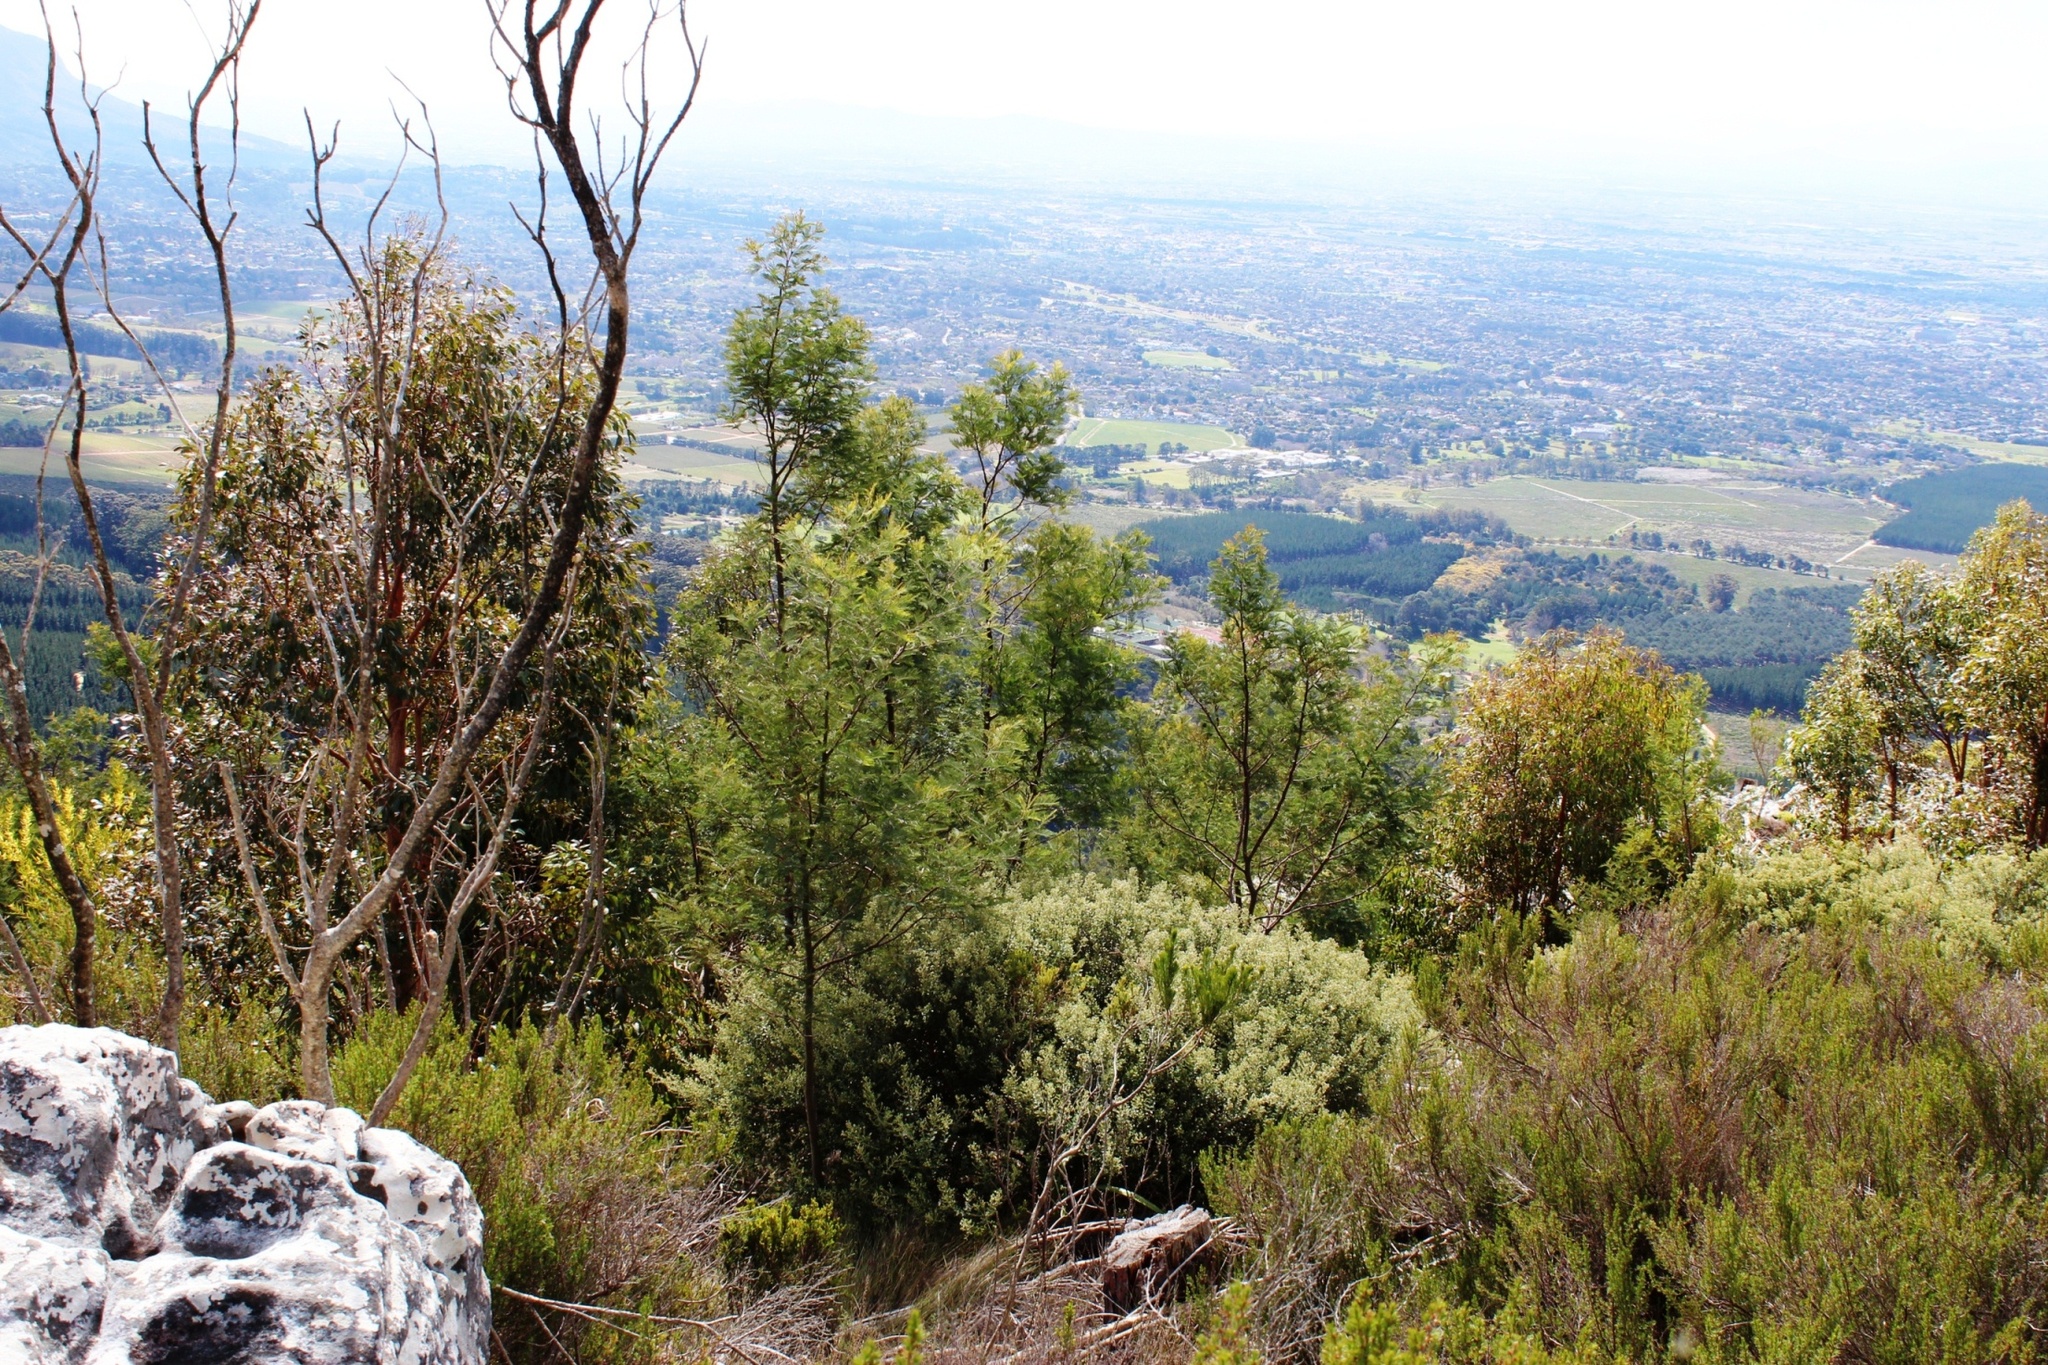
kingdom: Plantae
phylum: Tracheophyta
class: Magnoliopsida
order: Fabales
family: Fabaceae
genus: Acacia
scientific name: Acacia mearnsii
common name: Black wattle
